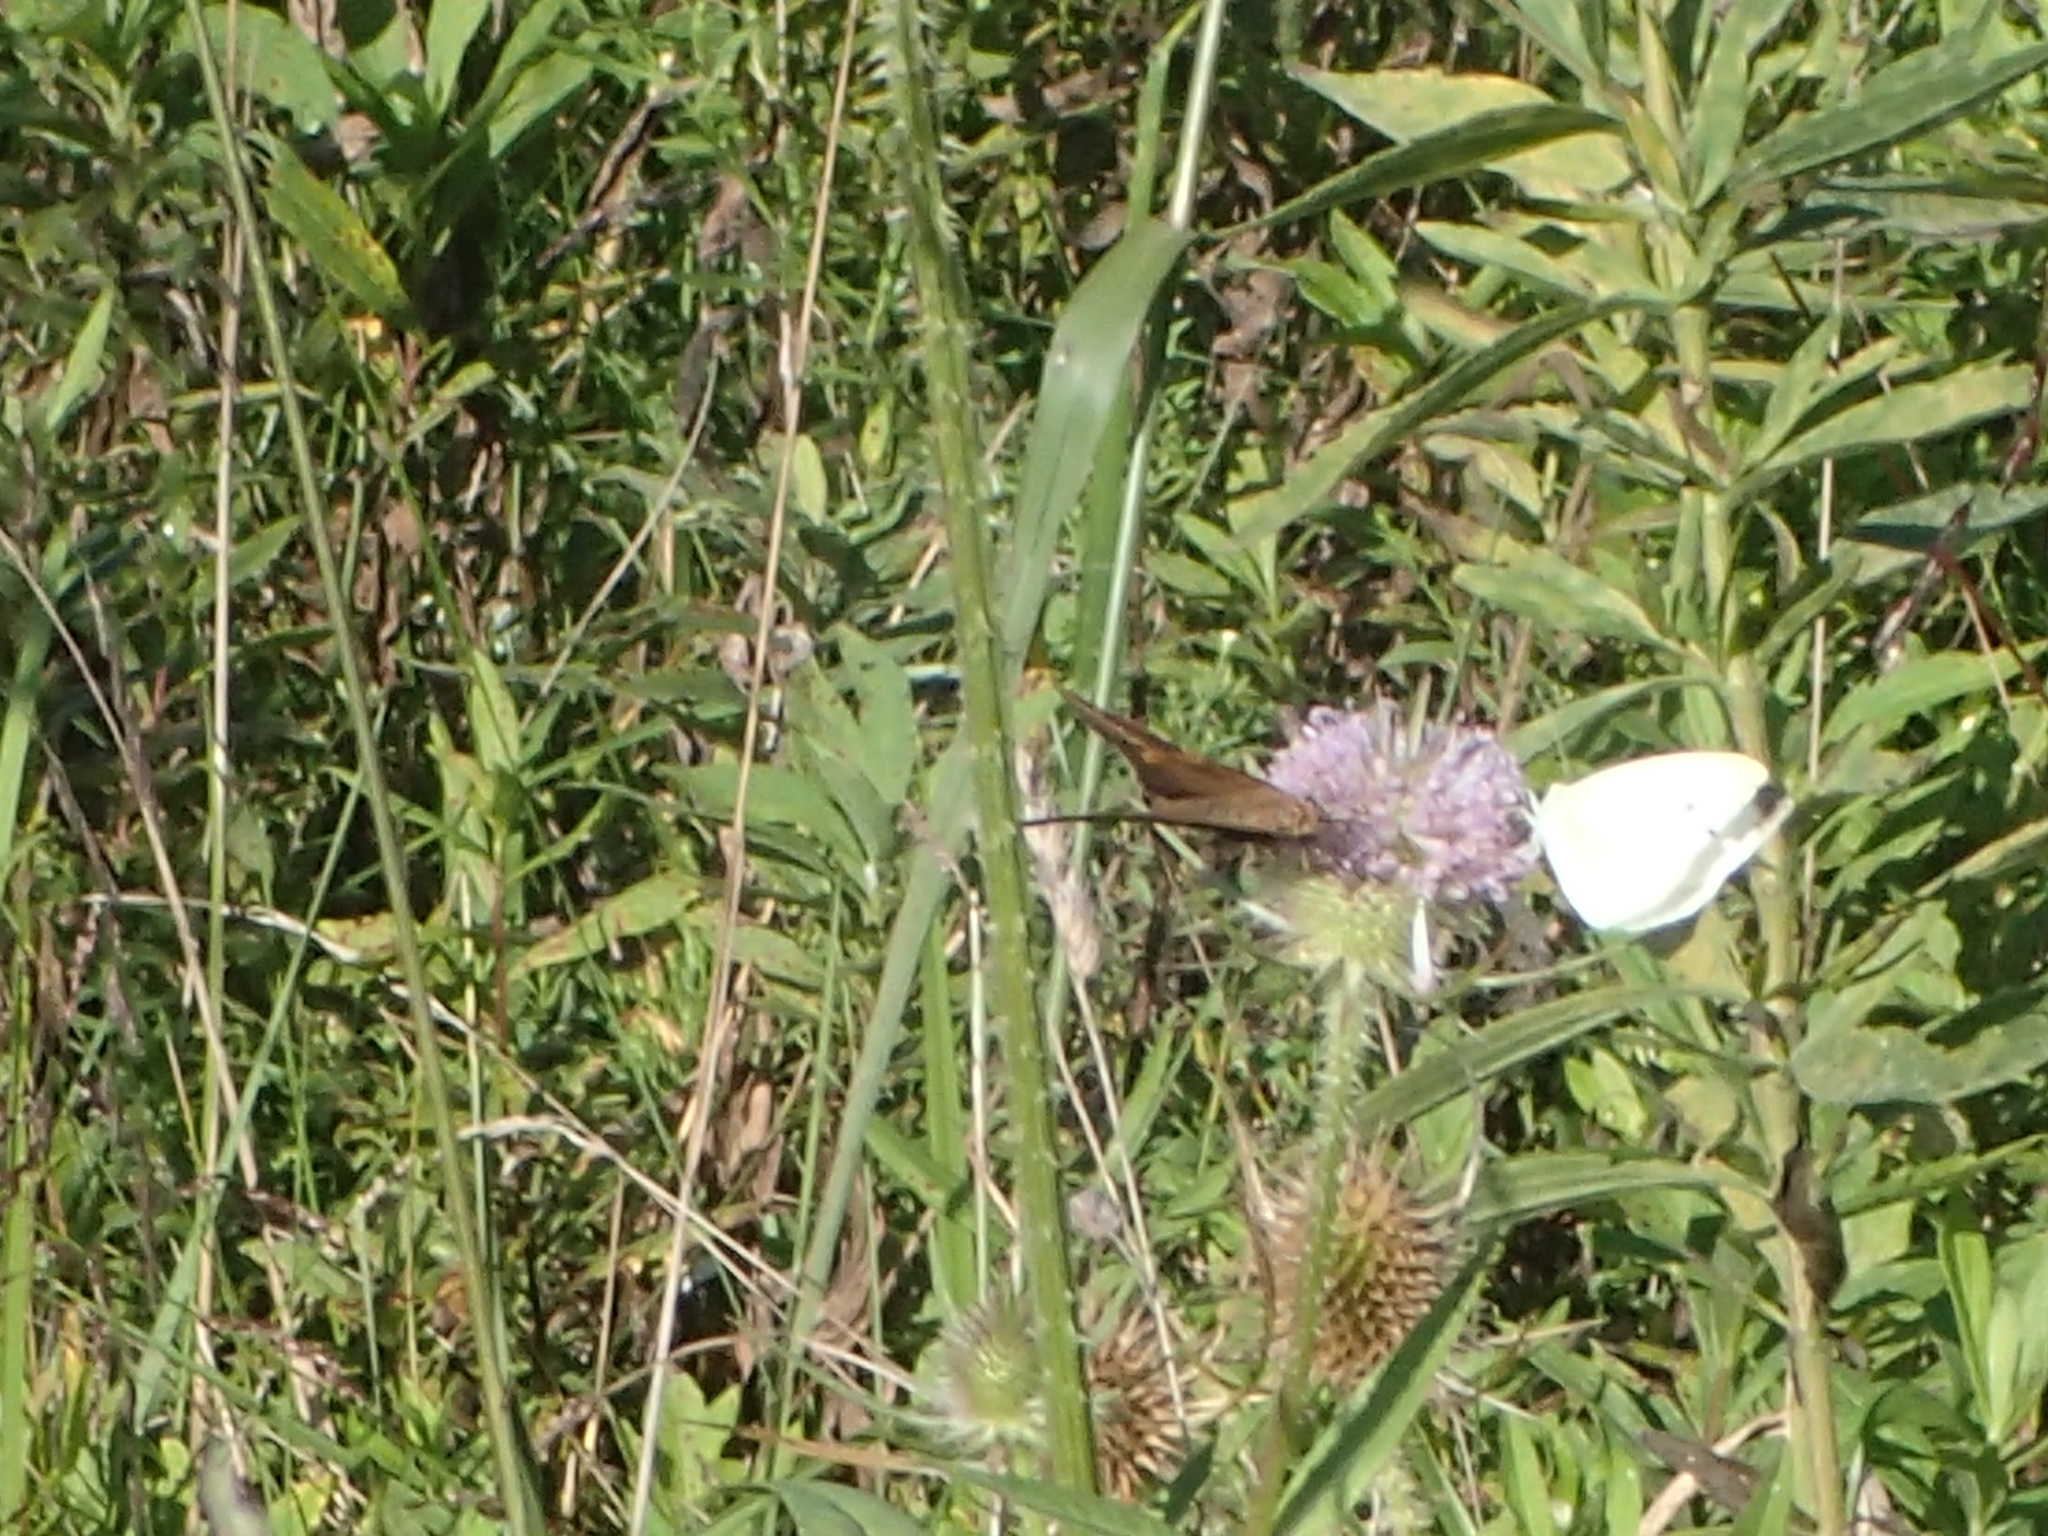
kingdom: Animalia
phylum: Arthropoda
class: Insecta
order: Lepidoptera
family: Pieridae
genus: Pieris
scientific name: Pieris rapae
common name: Small white
